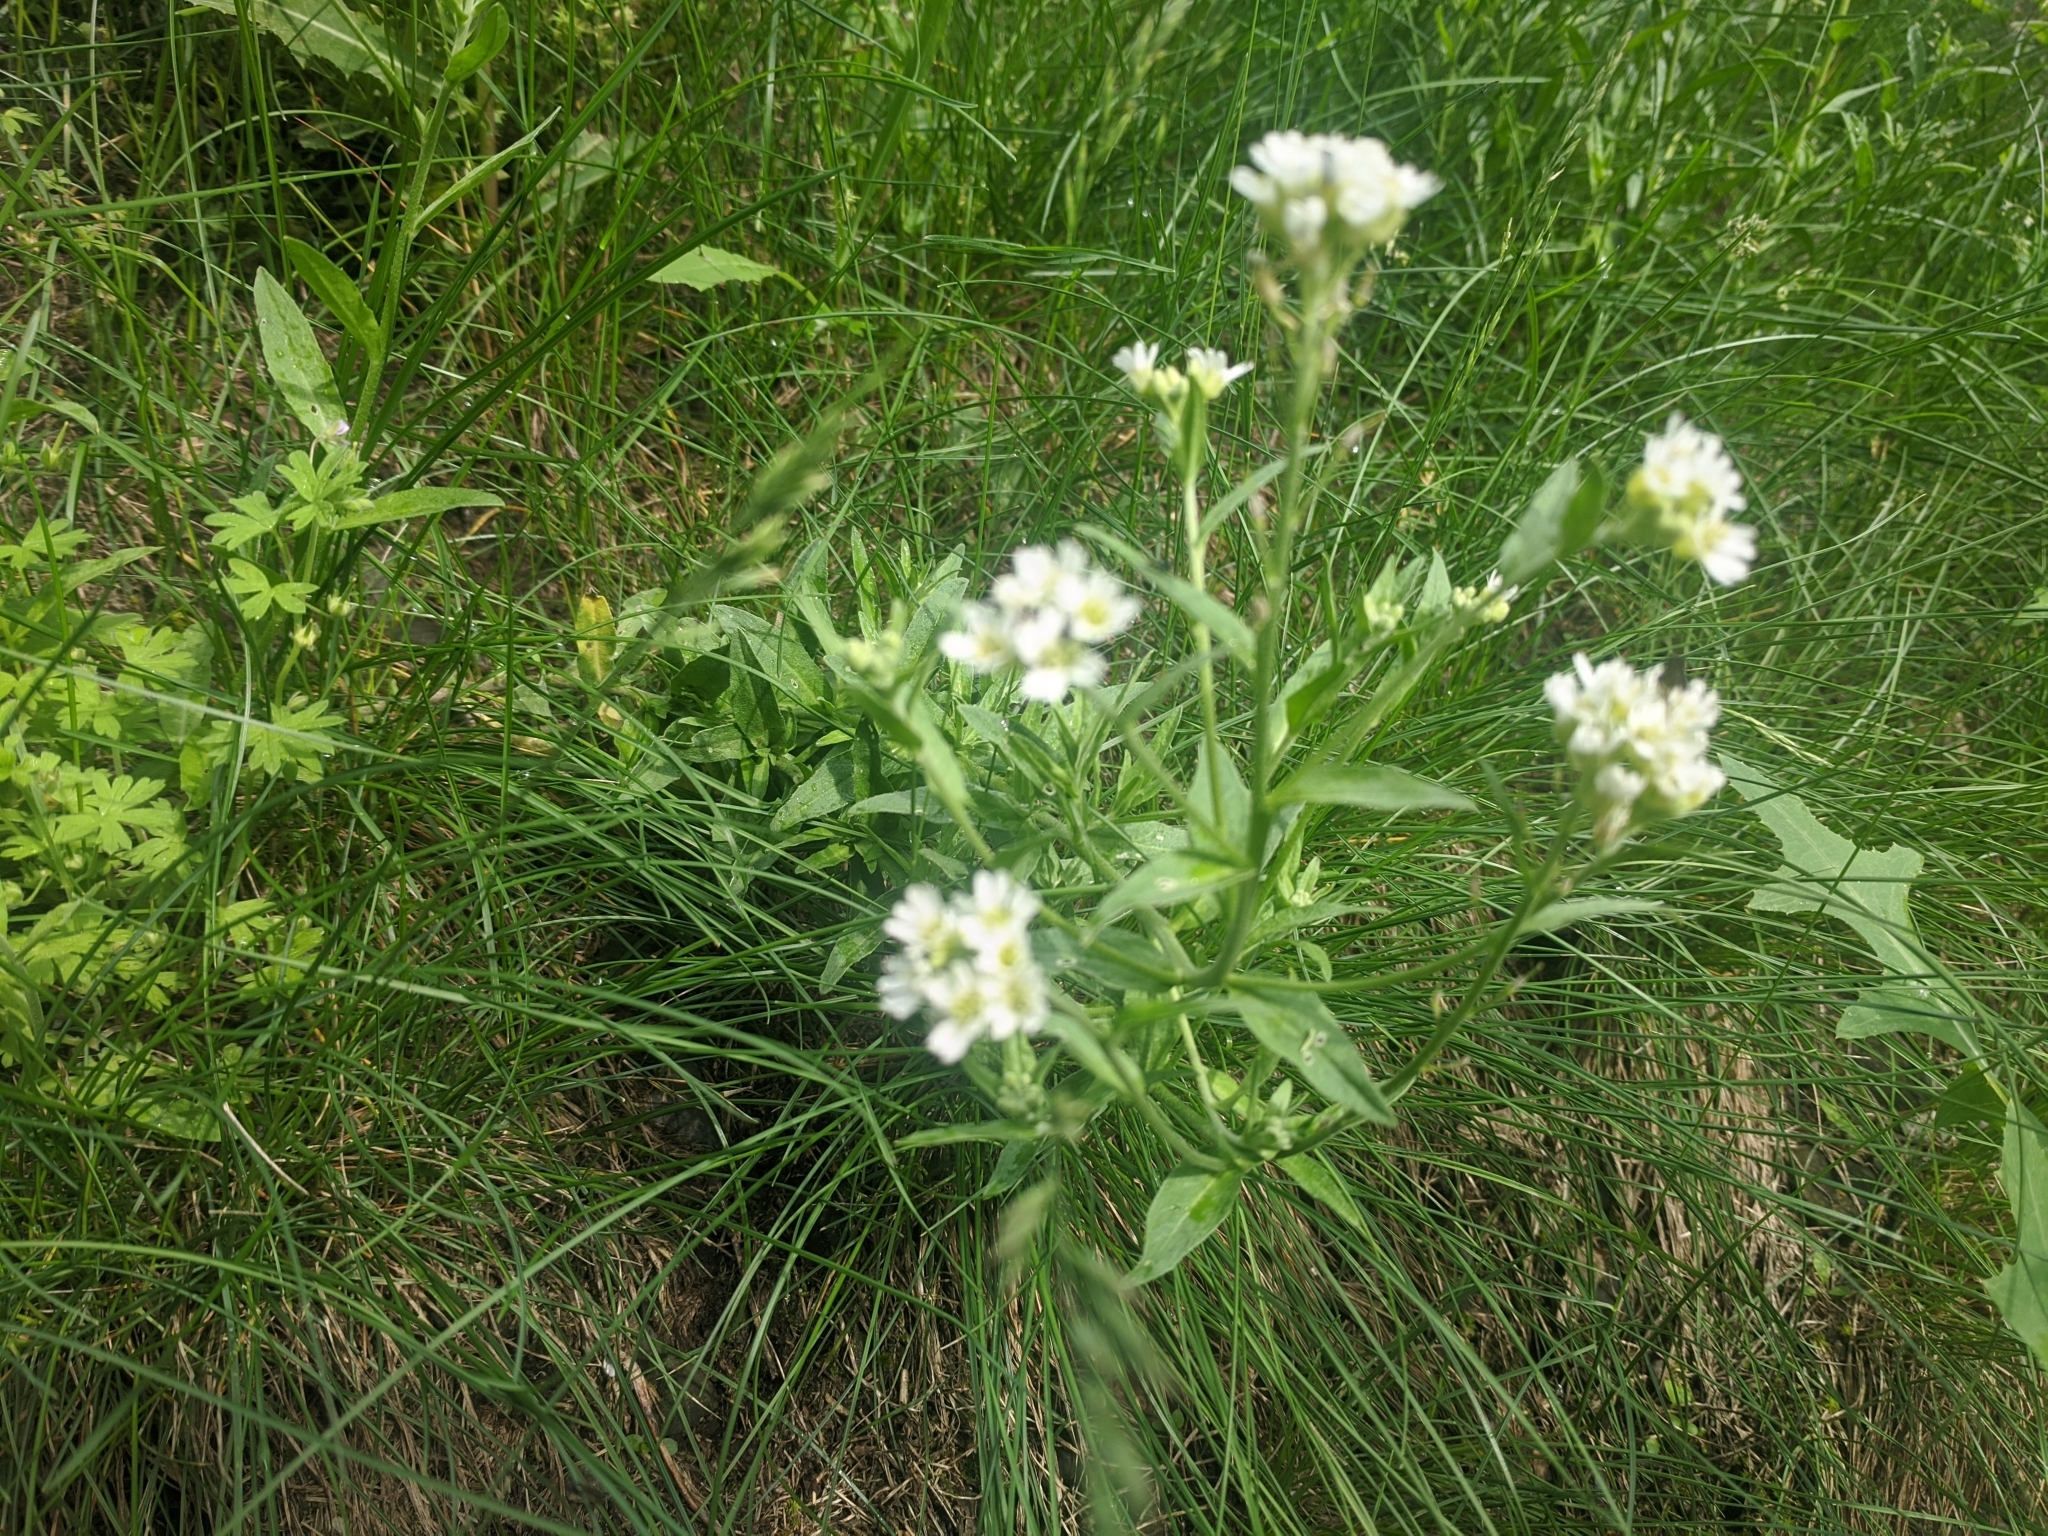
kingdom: Plantae
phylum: Tracheophyta
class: Magnoliopsida
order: Brassicales
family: Brassicaceae
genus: Berteroa
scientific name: Berteroa incana
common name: Hoary alison
